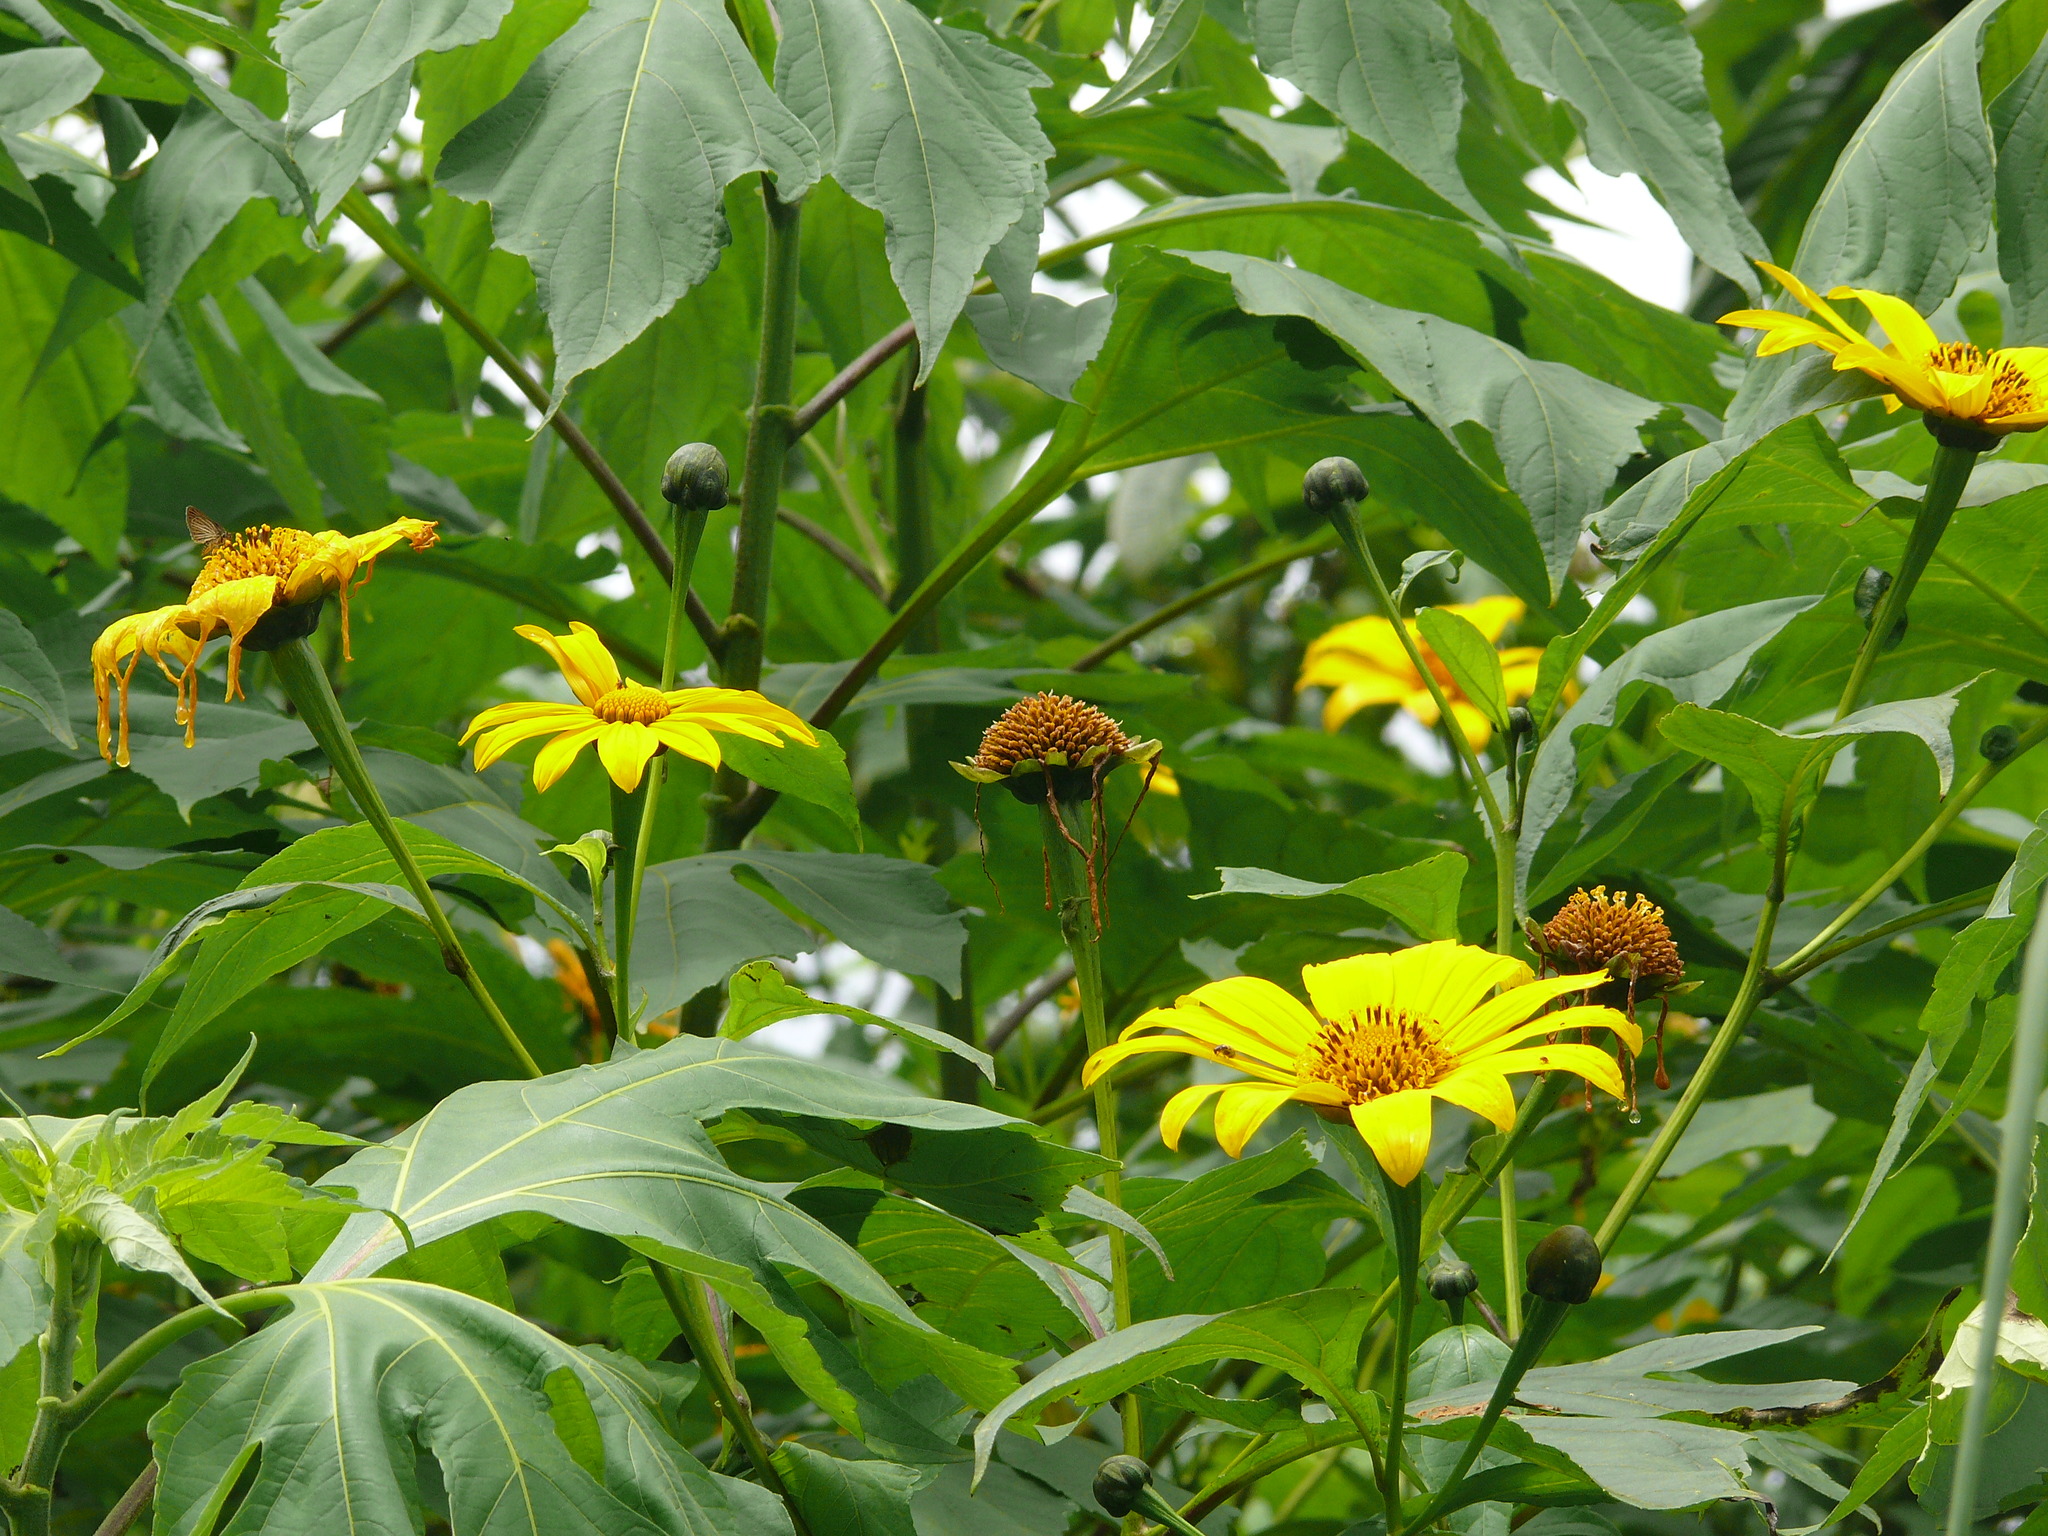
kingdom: Plantae
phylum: Tracheophyta
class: Magnoliopsida
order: Asterales
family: Asteraceae
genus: Tithonia
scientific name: Tithonia diversifolia
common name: Tree marigold
